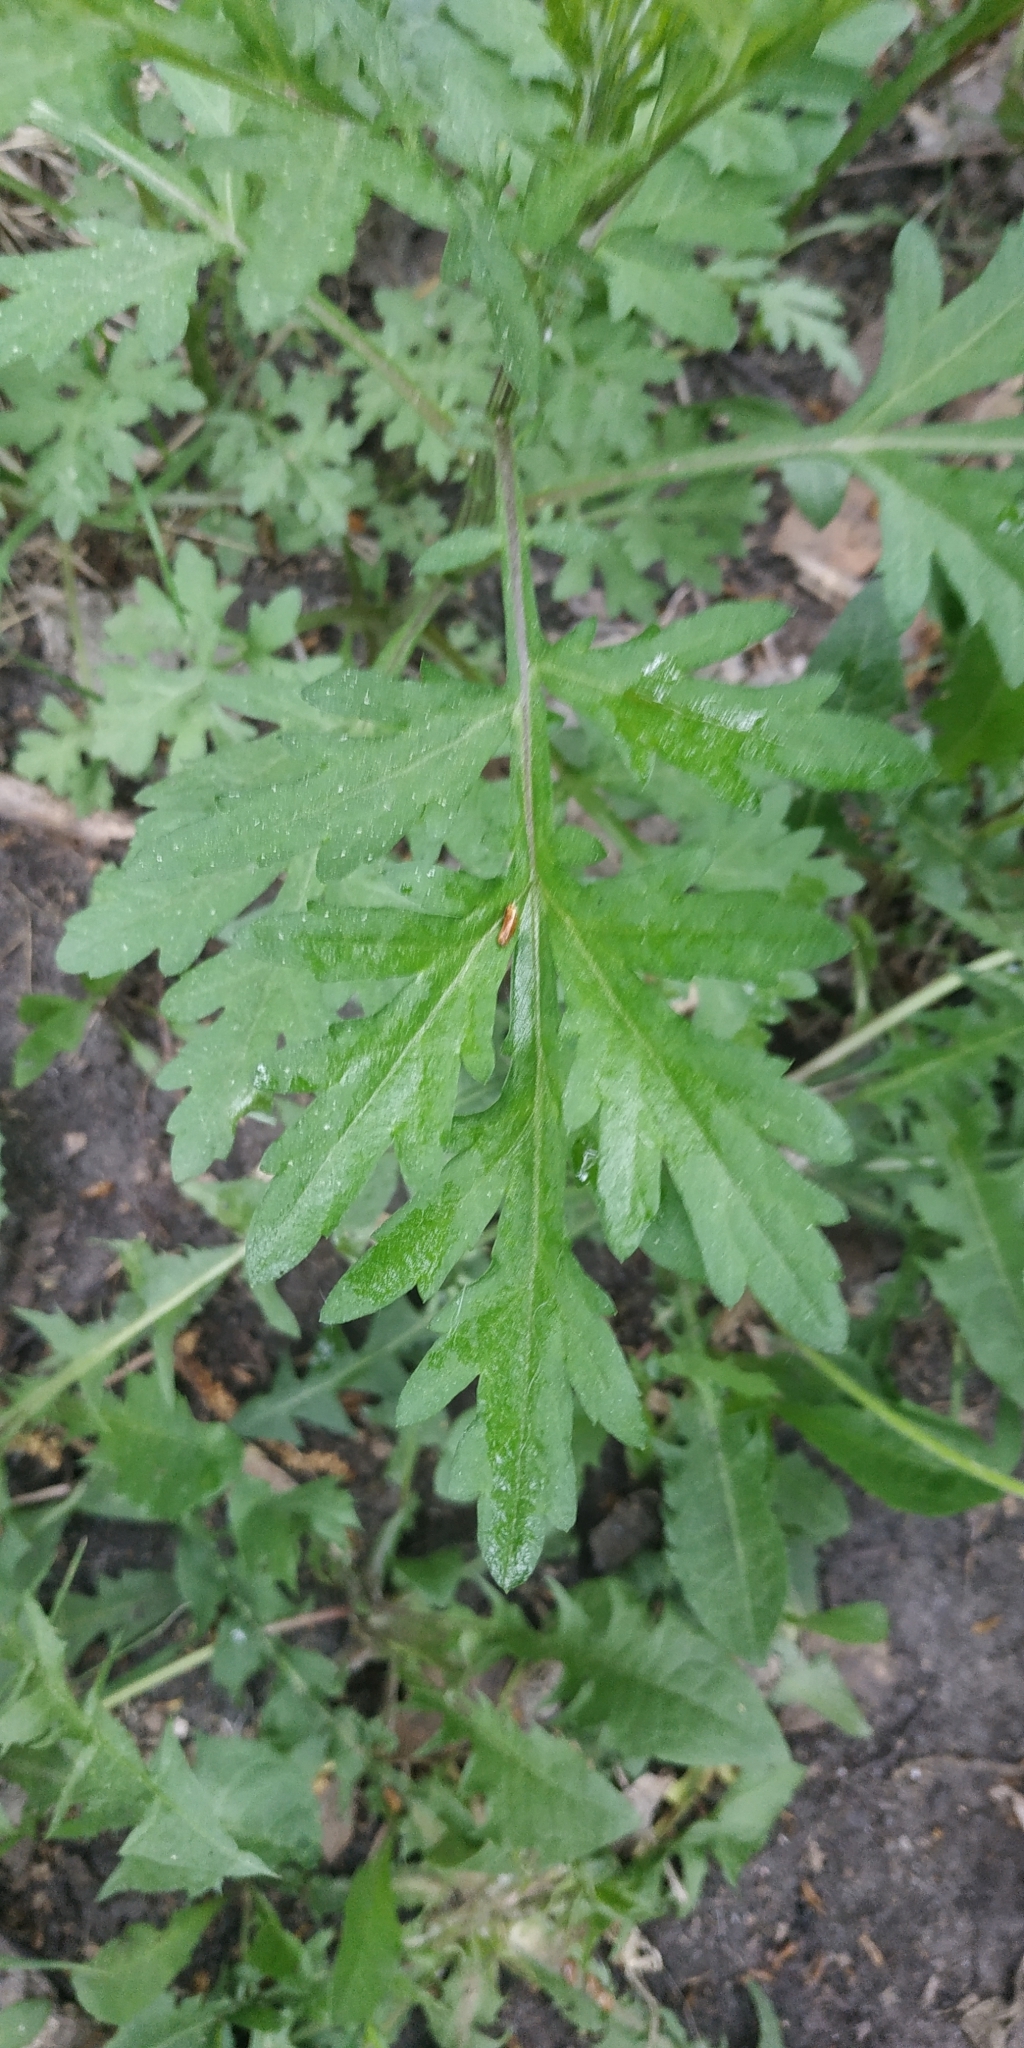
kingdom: Plantae
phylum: Tracheophyta
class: Magnoliopsida
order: Asterales
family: Asteraceae
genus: Artemisia
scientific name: Artemisia vulgaris
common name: Mugwort
